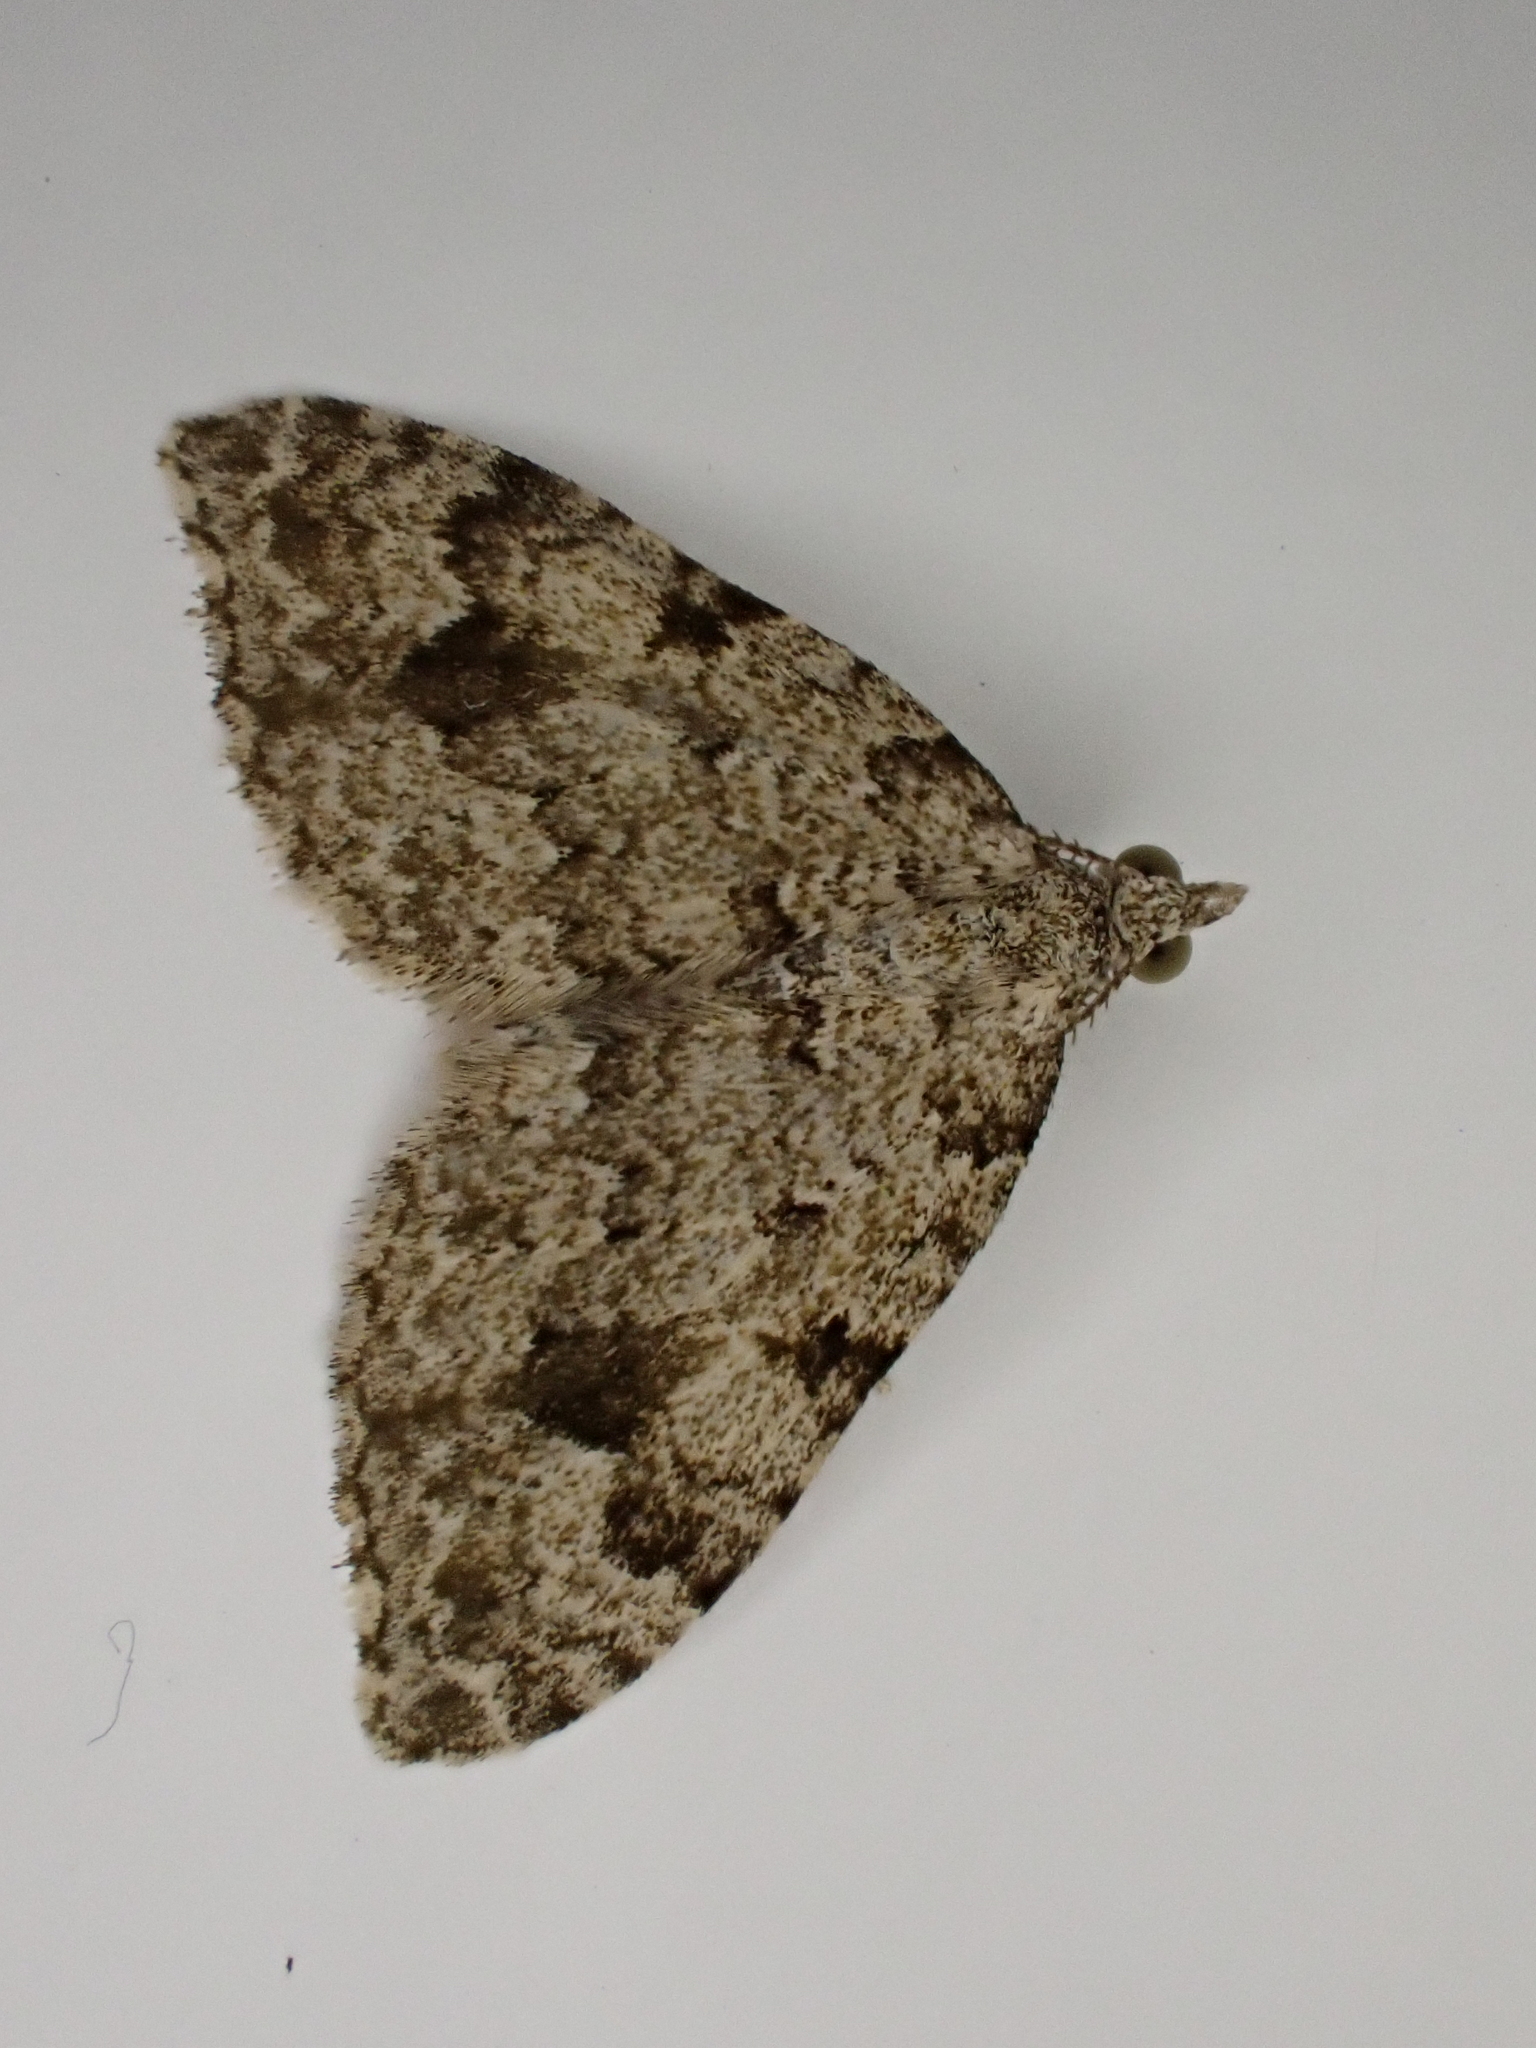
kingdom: Animalia
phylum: Arthropoda
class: Insecta
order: Lepidoptera
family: Geometridae
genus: Helastia
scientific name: Helastia cinerearia
